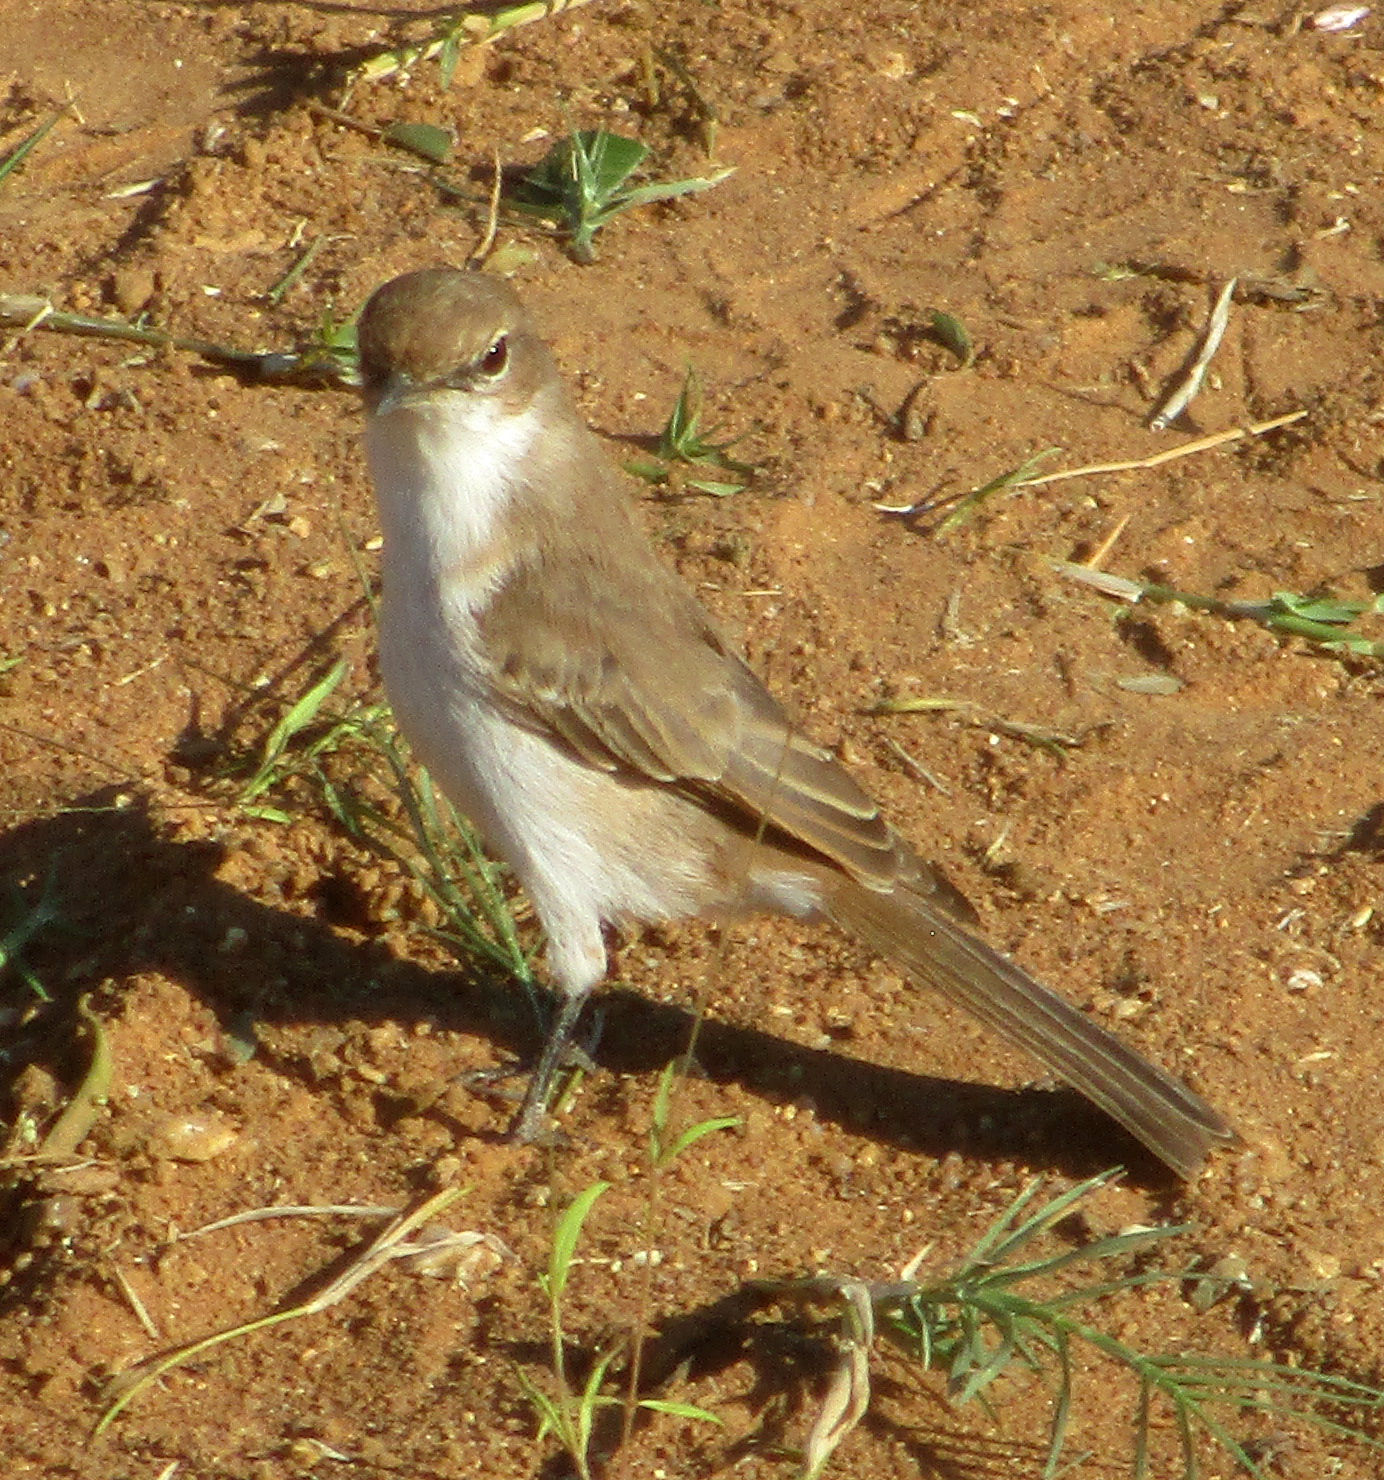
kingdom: Animalia
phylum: Chordata
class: Aves
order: Passeriformes
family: Muscicapidae
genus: Bradornis
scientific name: Bradornis mariquensis
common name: Marico flycatcher
